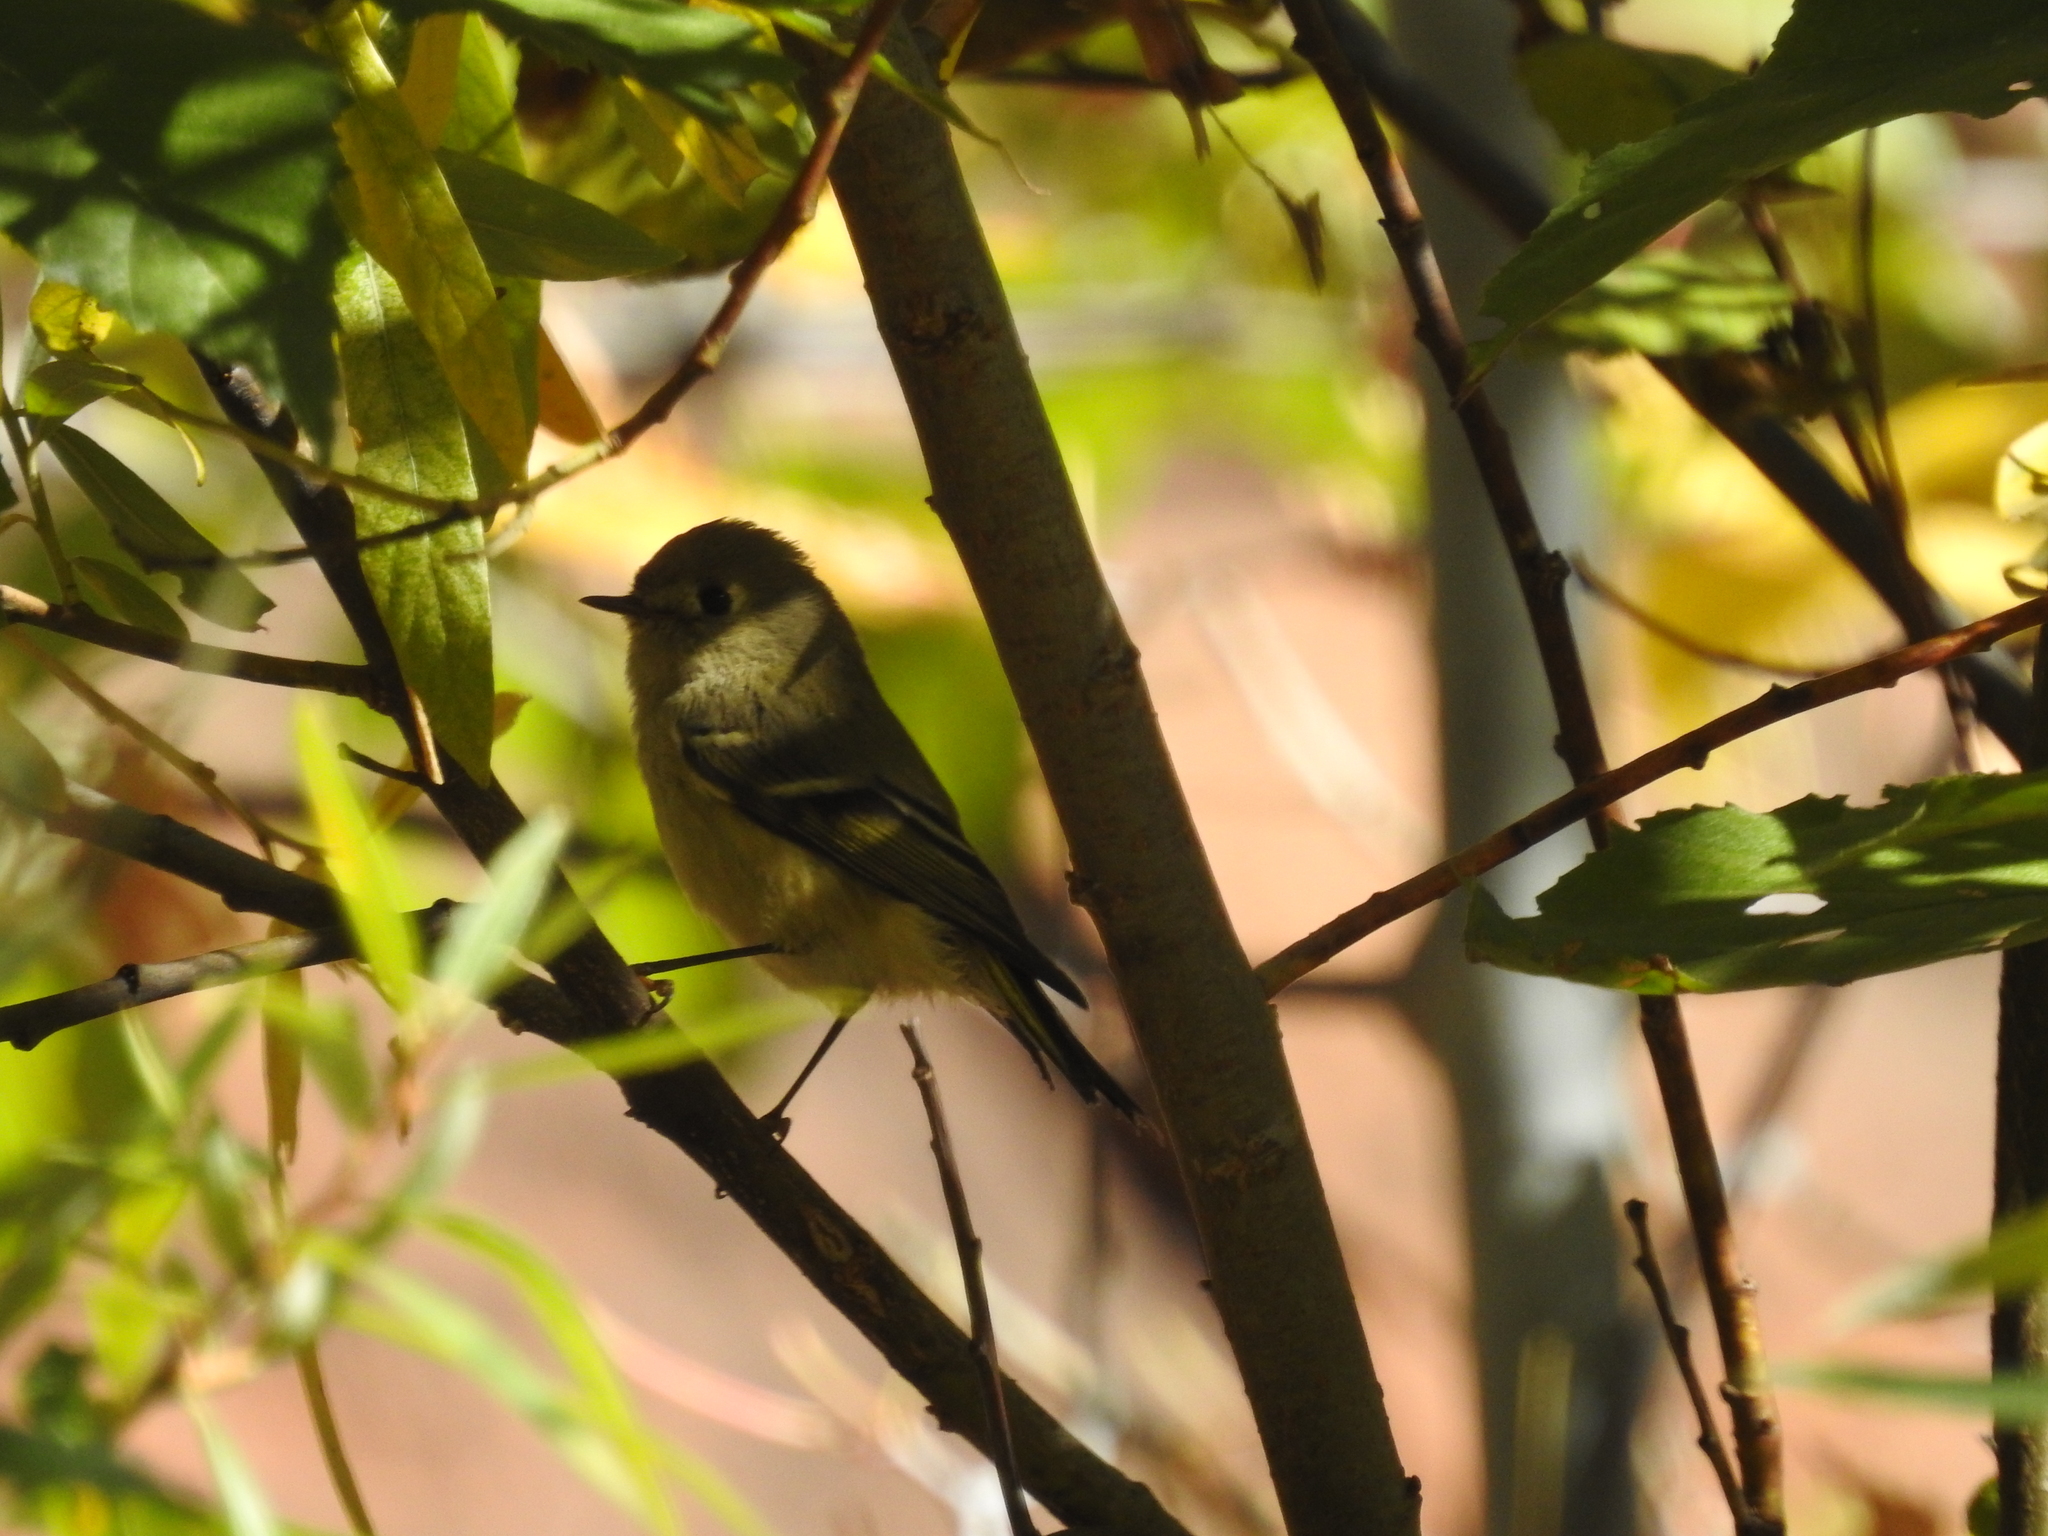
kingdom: Animalia
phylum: Chordata
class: Aves
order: Passeriformes
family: Regulidae
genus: Regulus
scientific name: Regulus calendula
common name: Ruby-crowned kinglet
